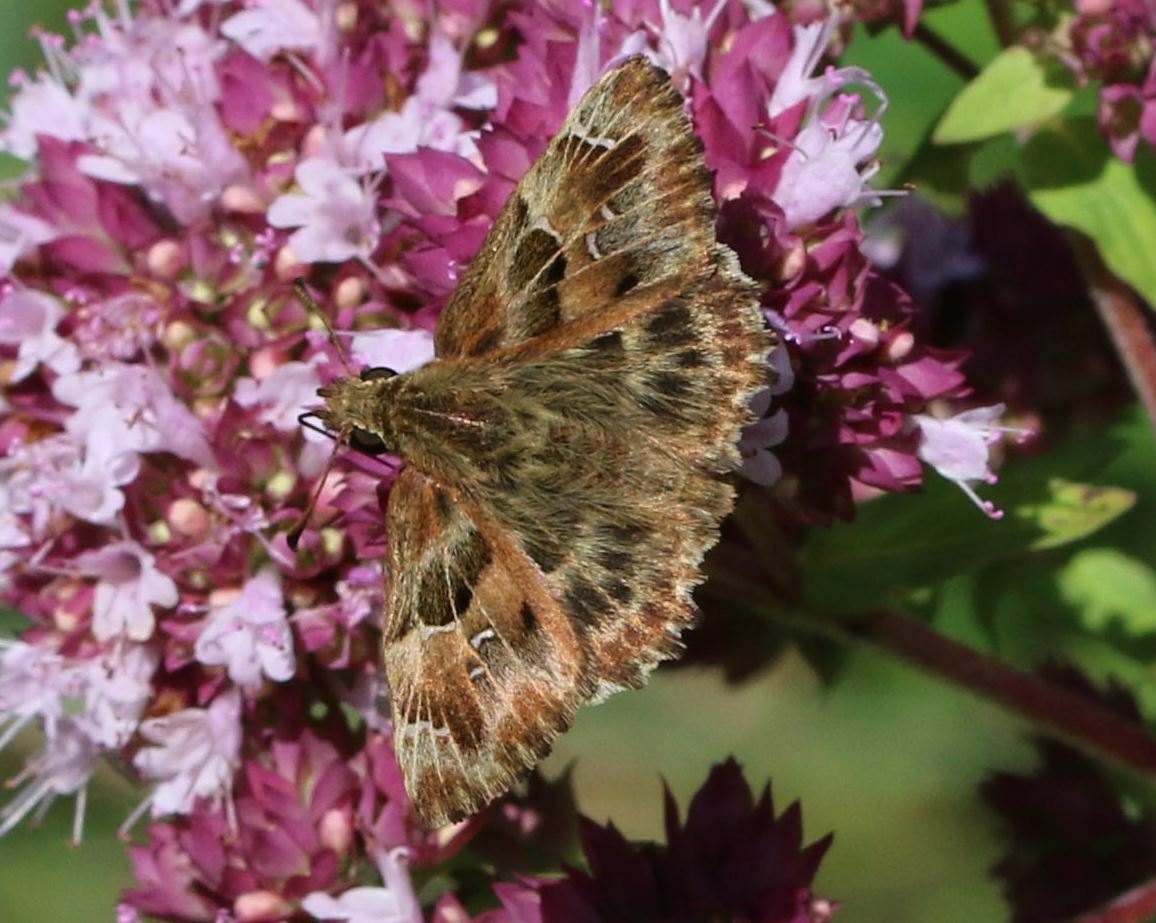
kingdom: Animalia
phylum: Arthropoda
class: Insecta
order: Lepidoptera
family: Hesperiidae
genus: Carcharodus
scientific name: Carcharodus alceae
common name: Mallow skipper
